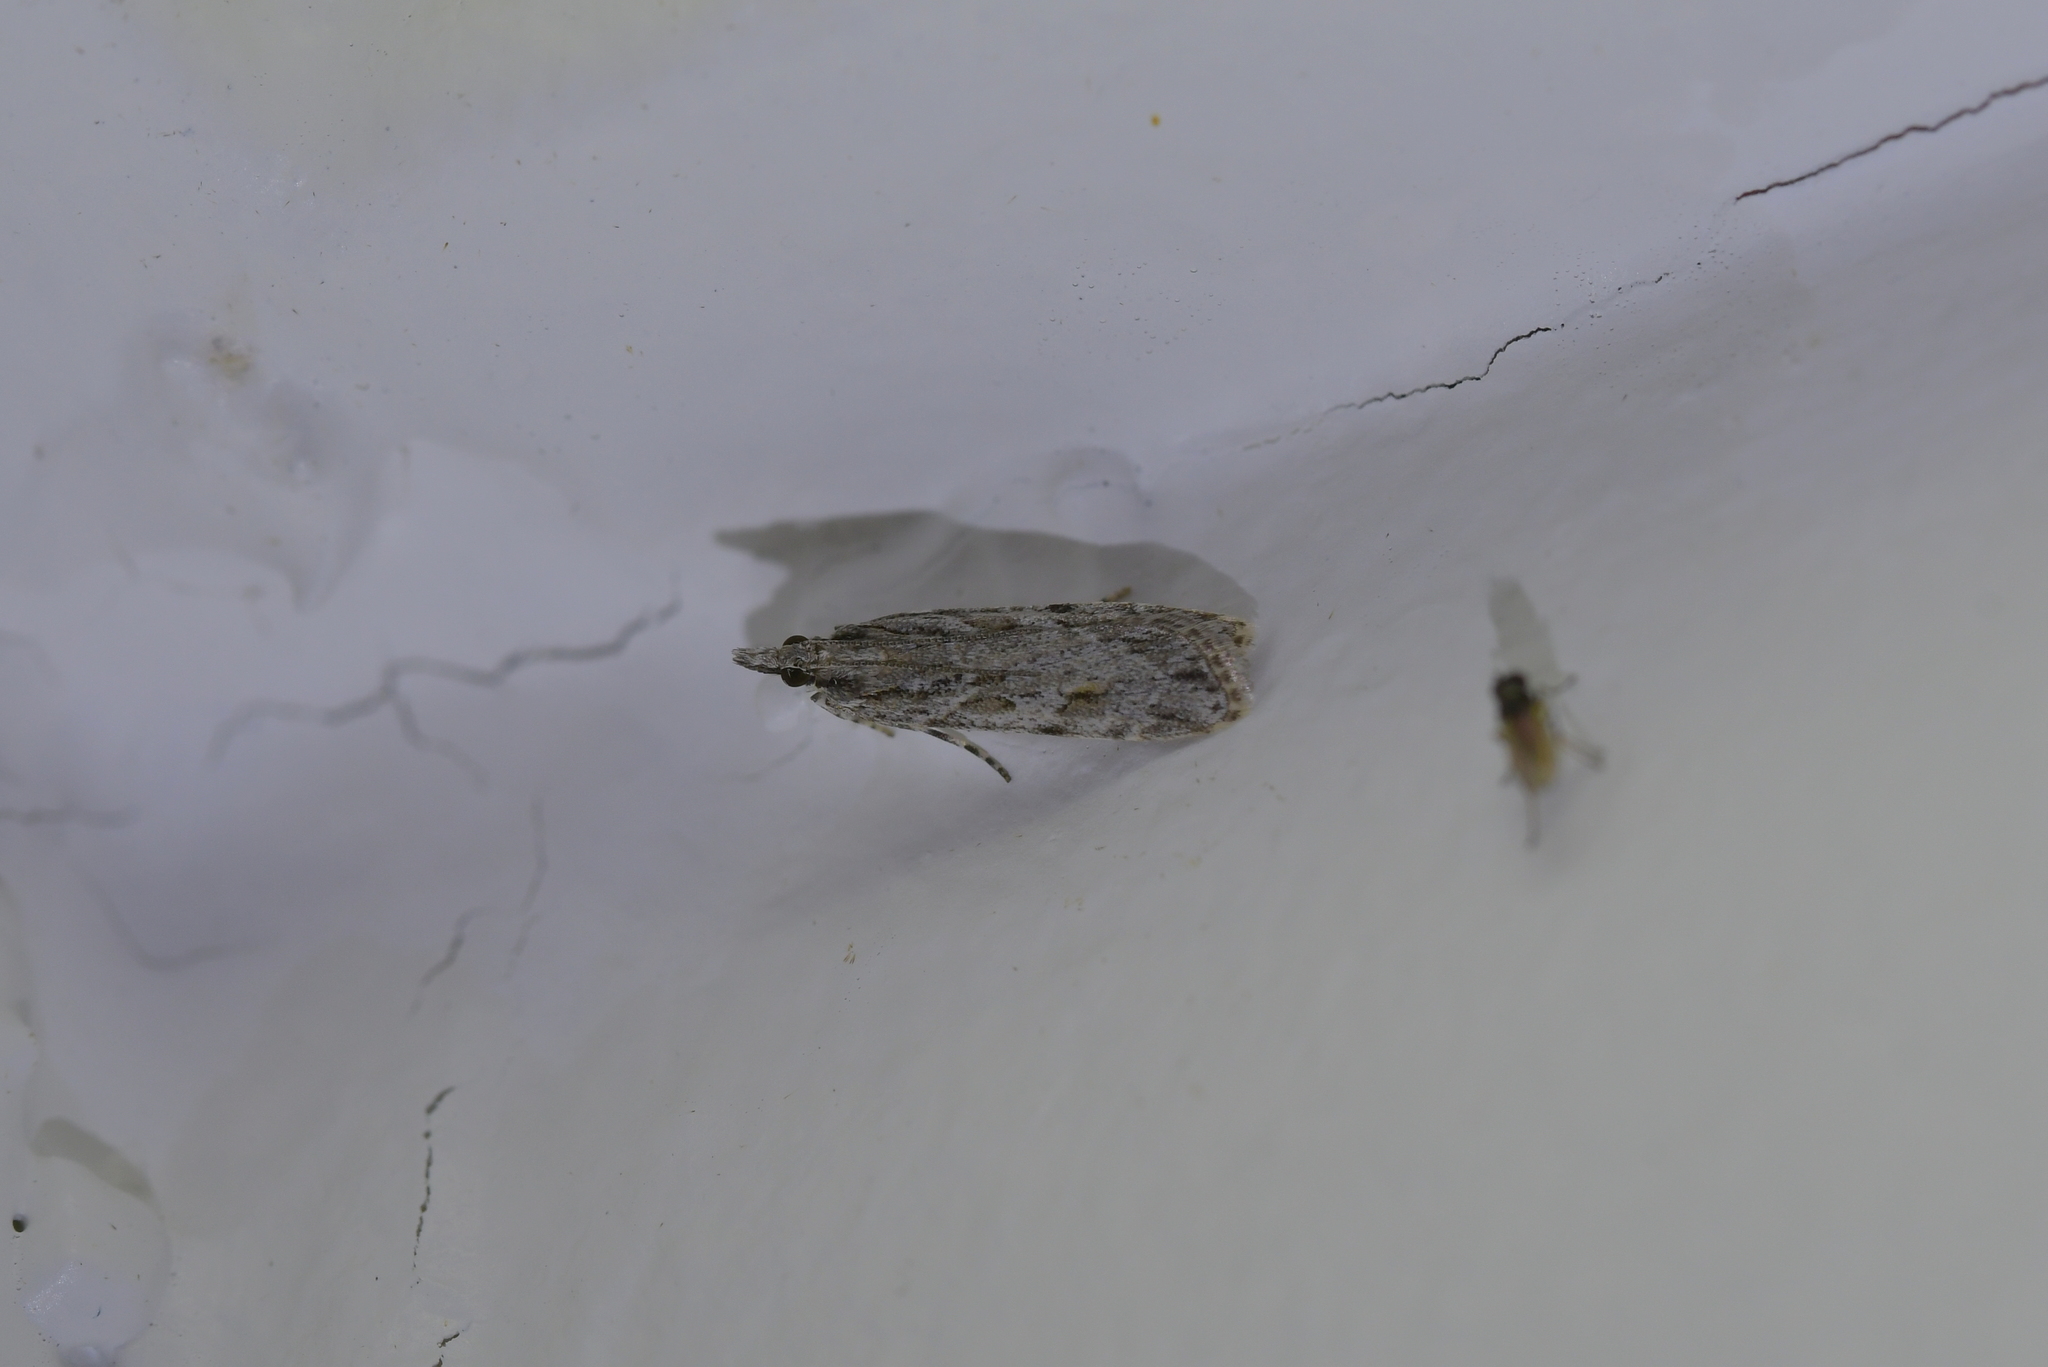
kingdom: Animalia
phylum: Arthropoda
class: Insecta
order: Lepidoptera
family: Crambidae
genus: Scoparia
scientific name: Scoparia chalicodes
